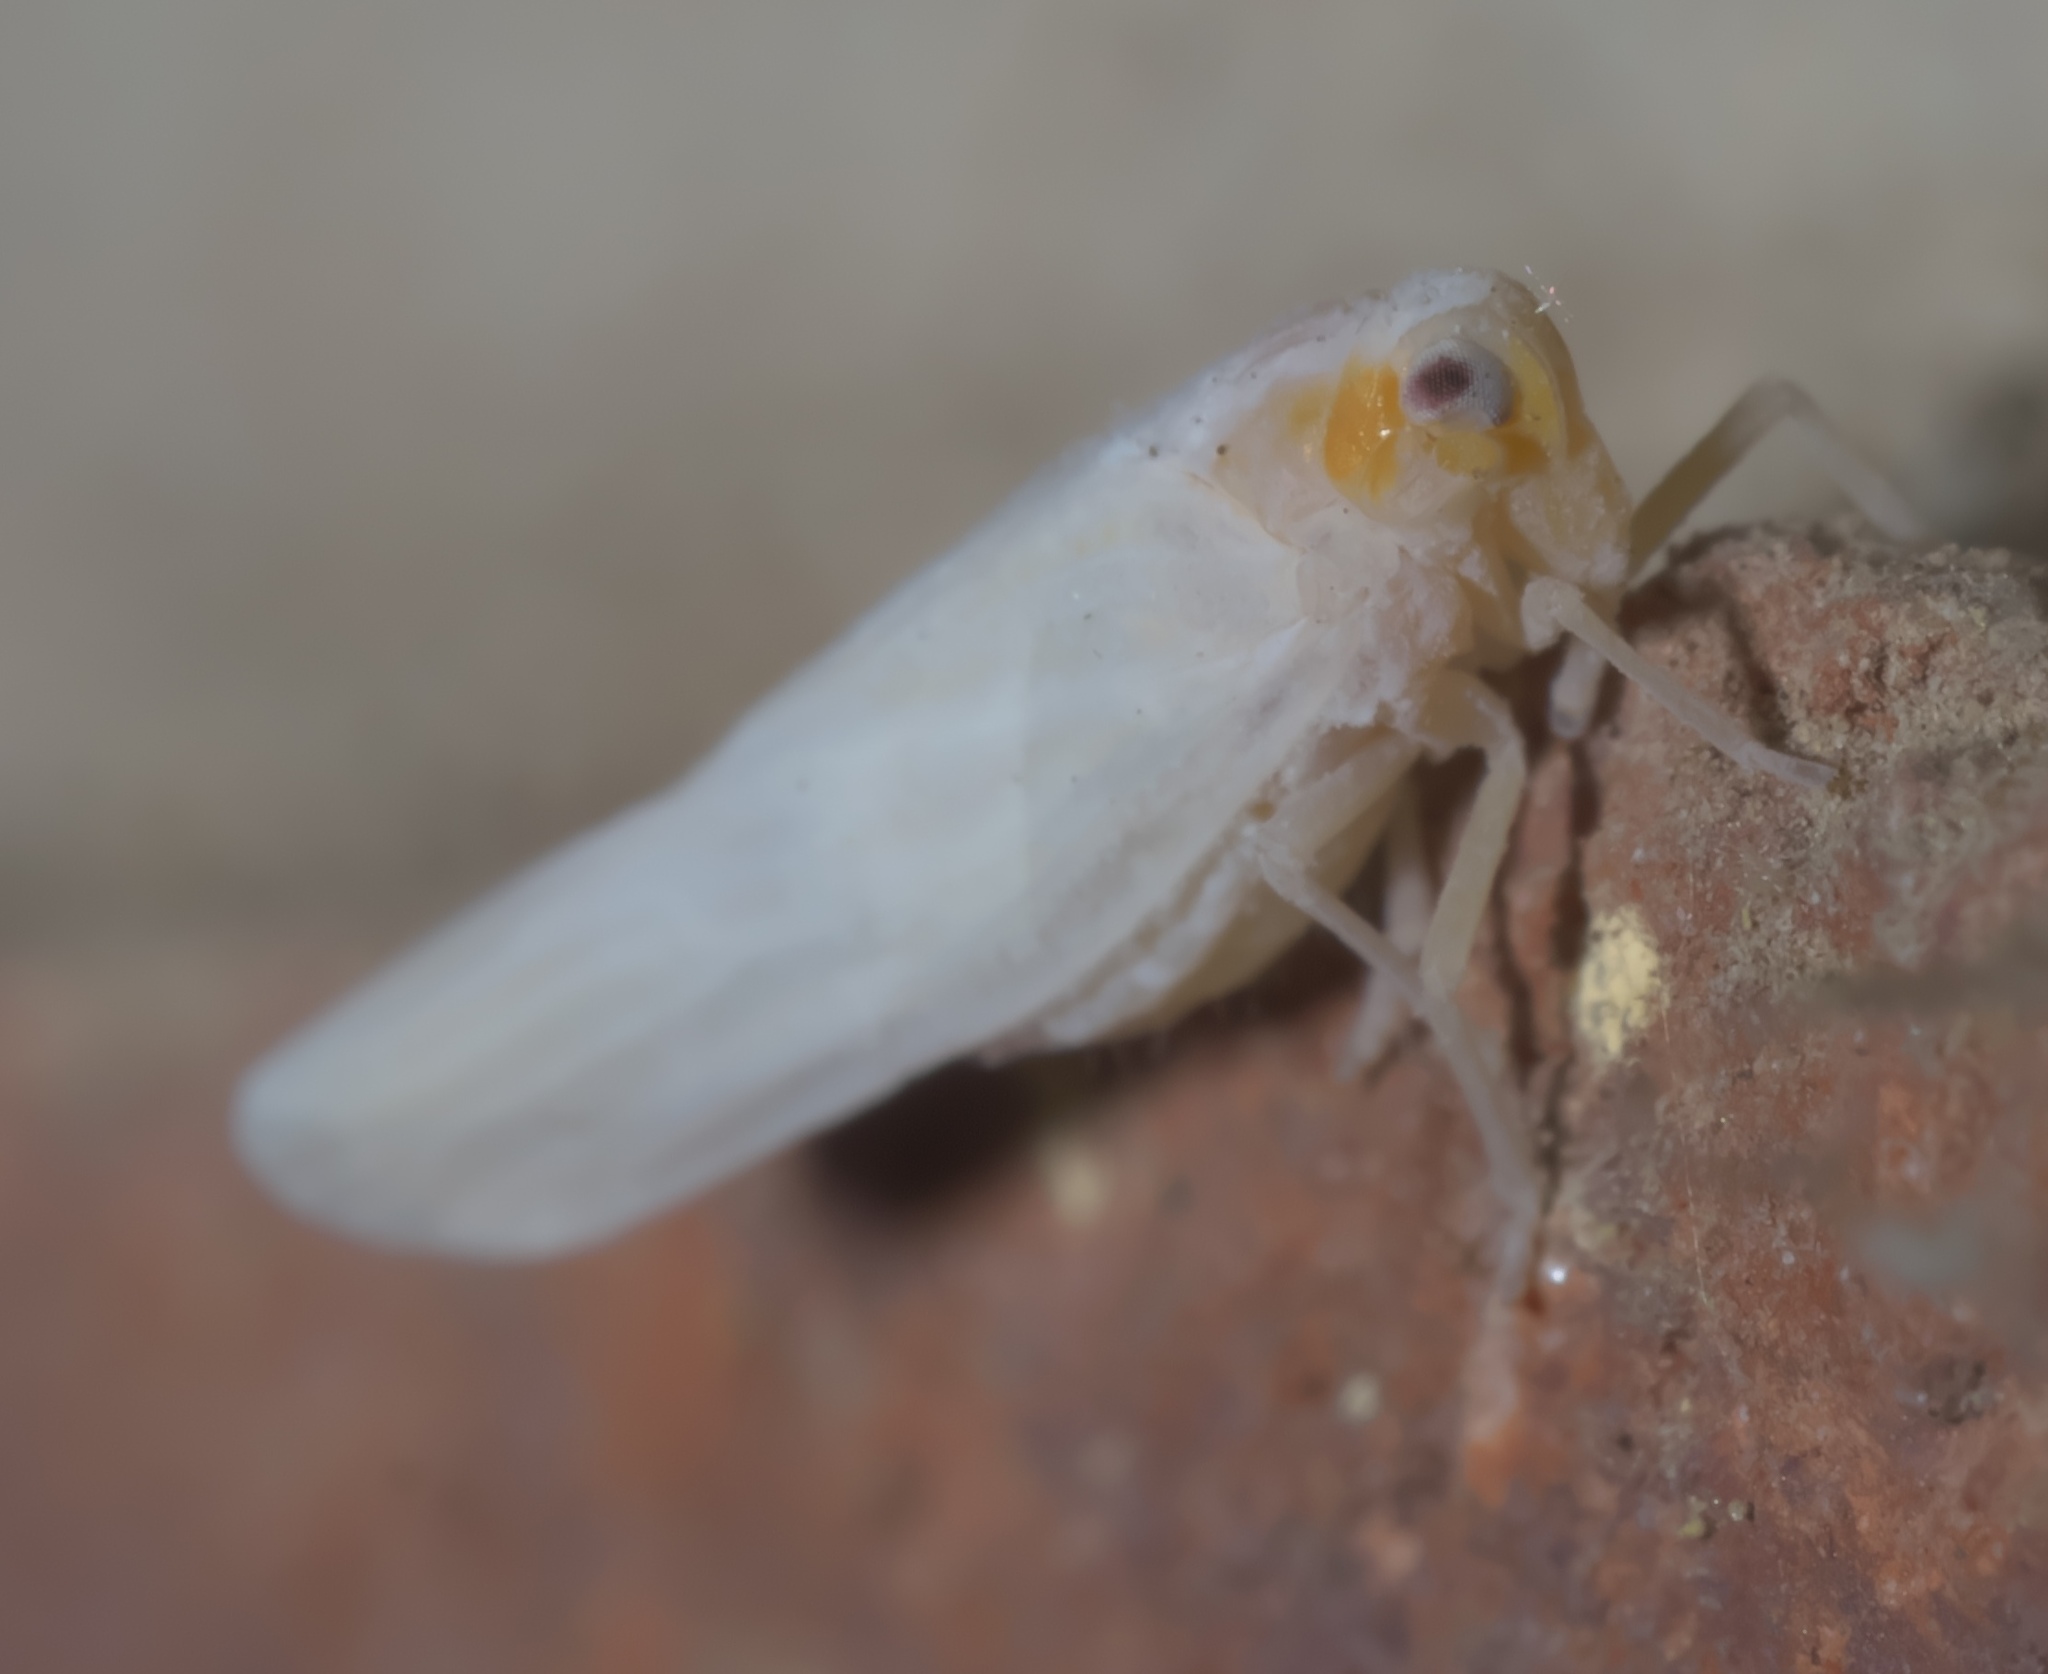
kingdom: Animalia
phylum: Arthropoda
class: Insecta
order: Hemiptera
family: Derbidae
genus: Neocenchrea
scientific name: Neocenchrea heidemanni
